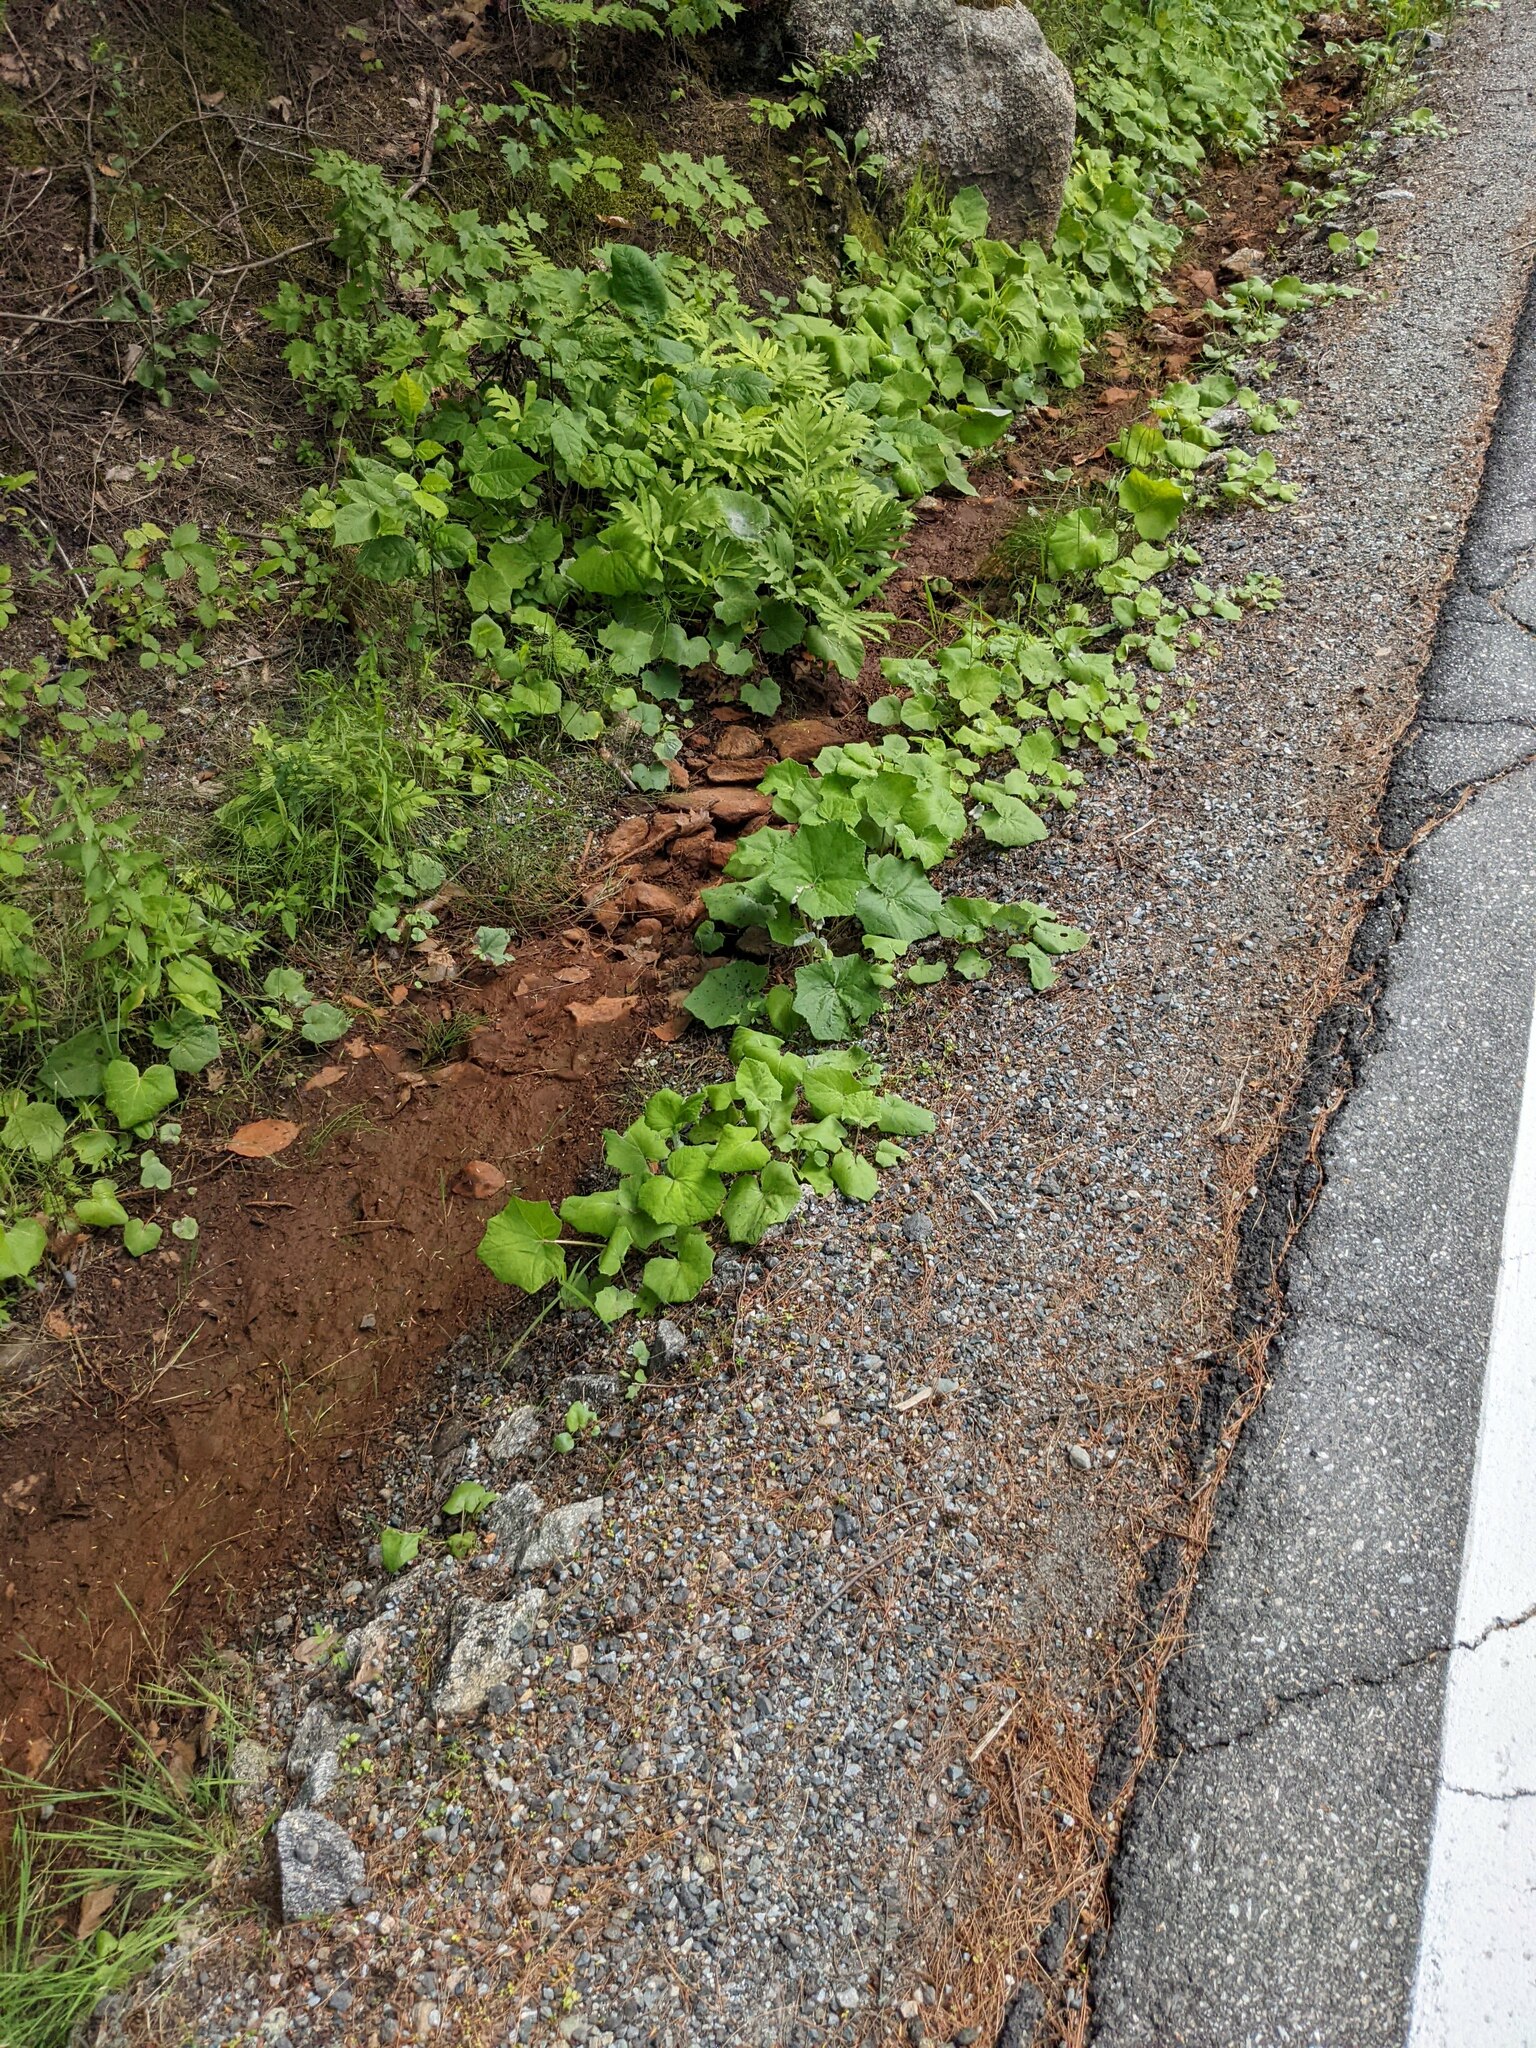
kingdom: Plantae
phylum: Tracheophyta
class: Magnoliopsida
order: Asterales
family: Asteraceae
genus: Tussilago
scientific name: Tussilago farfara
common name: Coltsfoot
